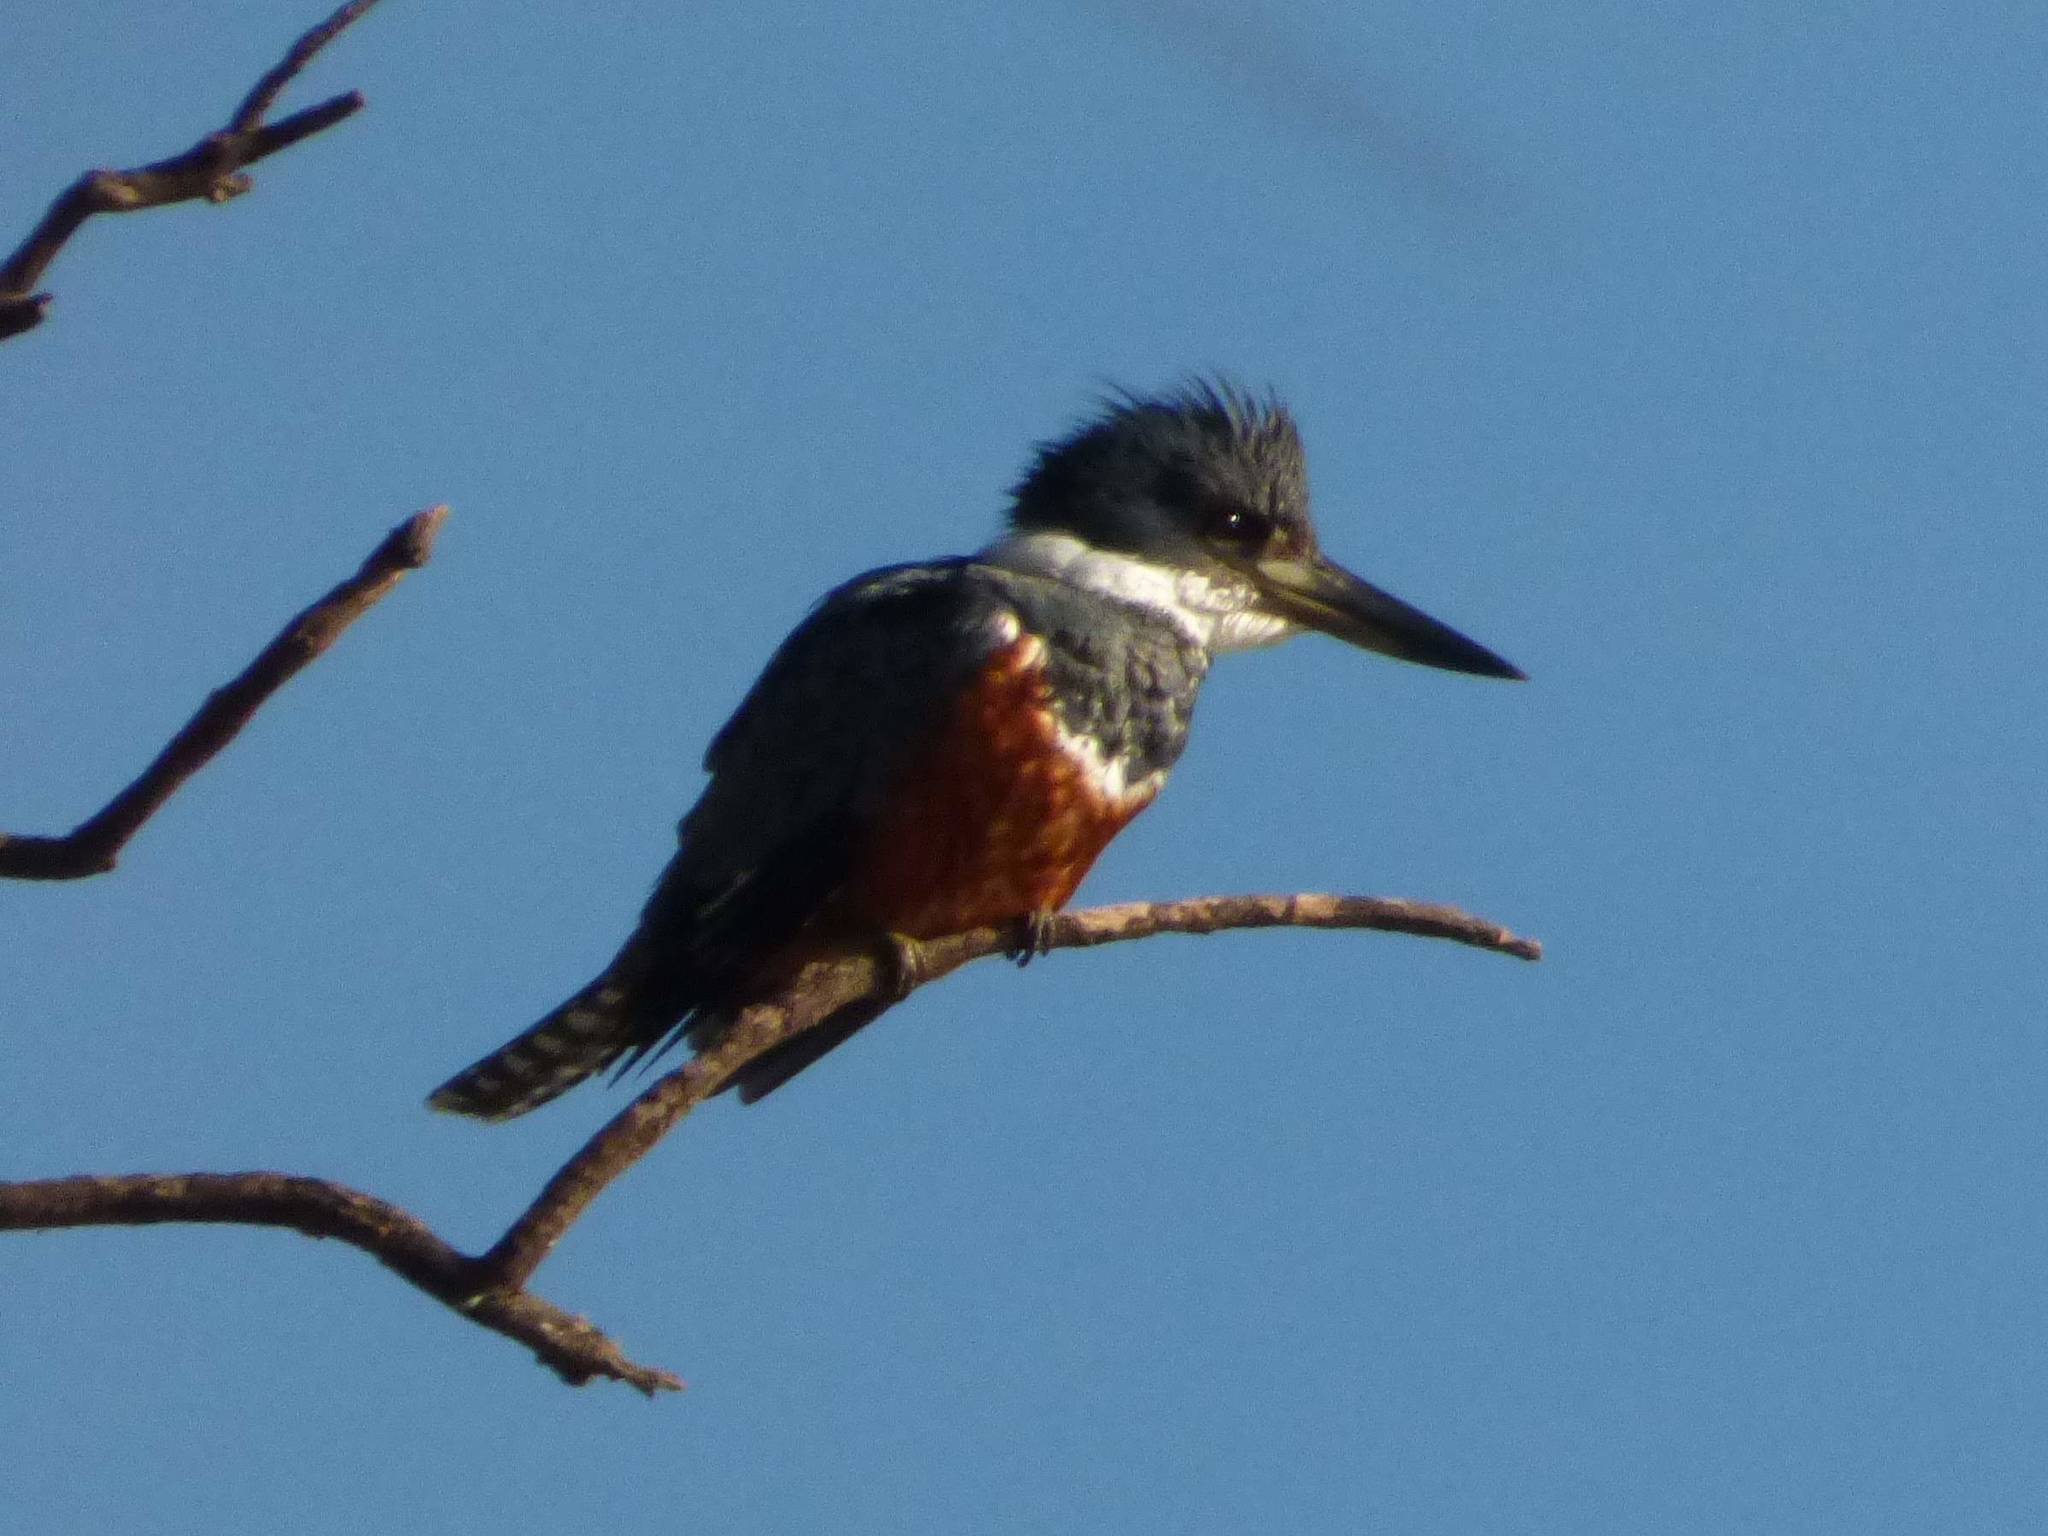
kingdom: Animalia
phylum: Chordata
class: Aves
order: Coraciiformes
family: Alcedinidae
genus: Megaceryle
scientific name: Megaceryle torquata
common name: Ringed kingfisher
